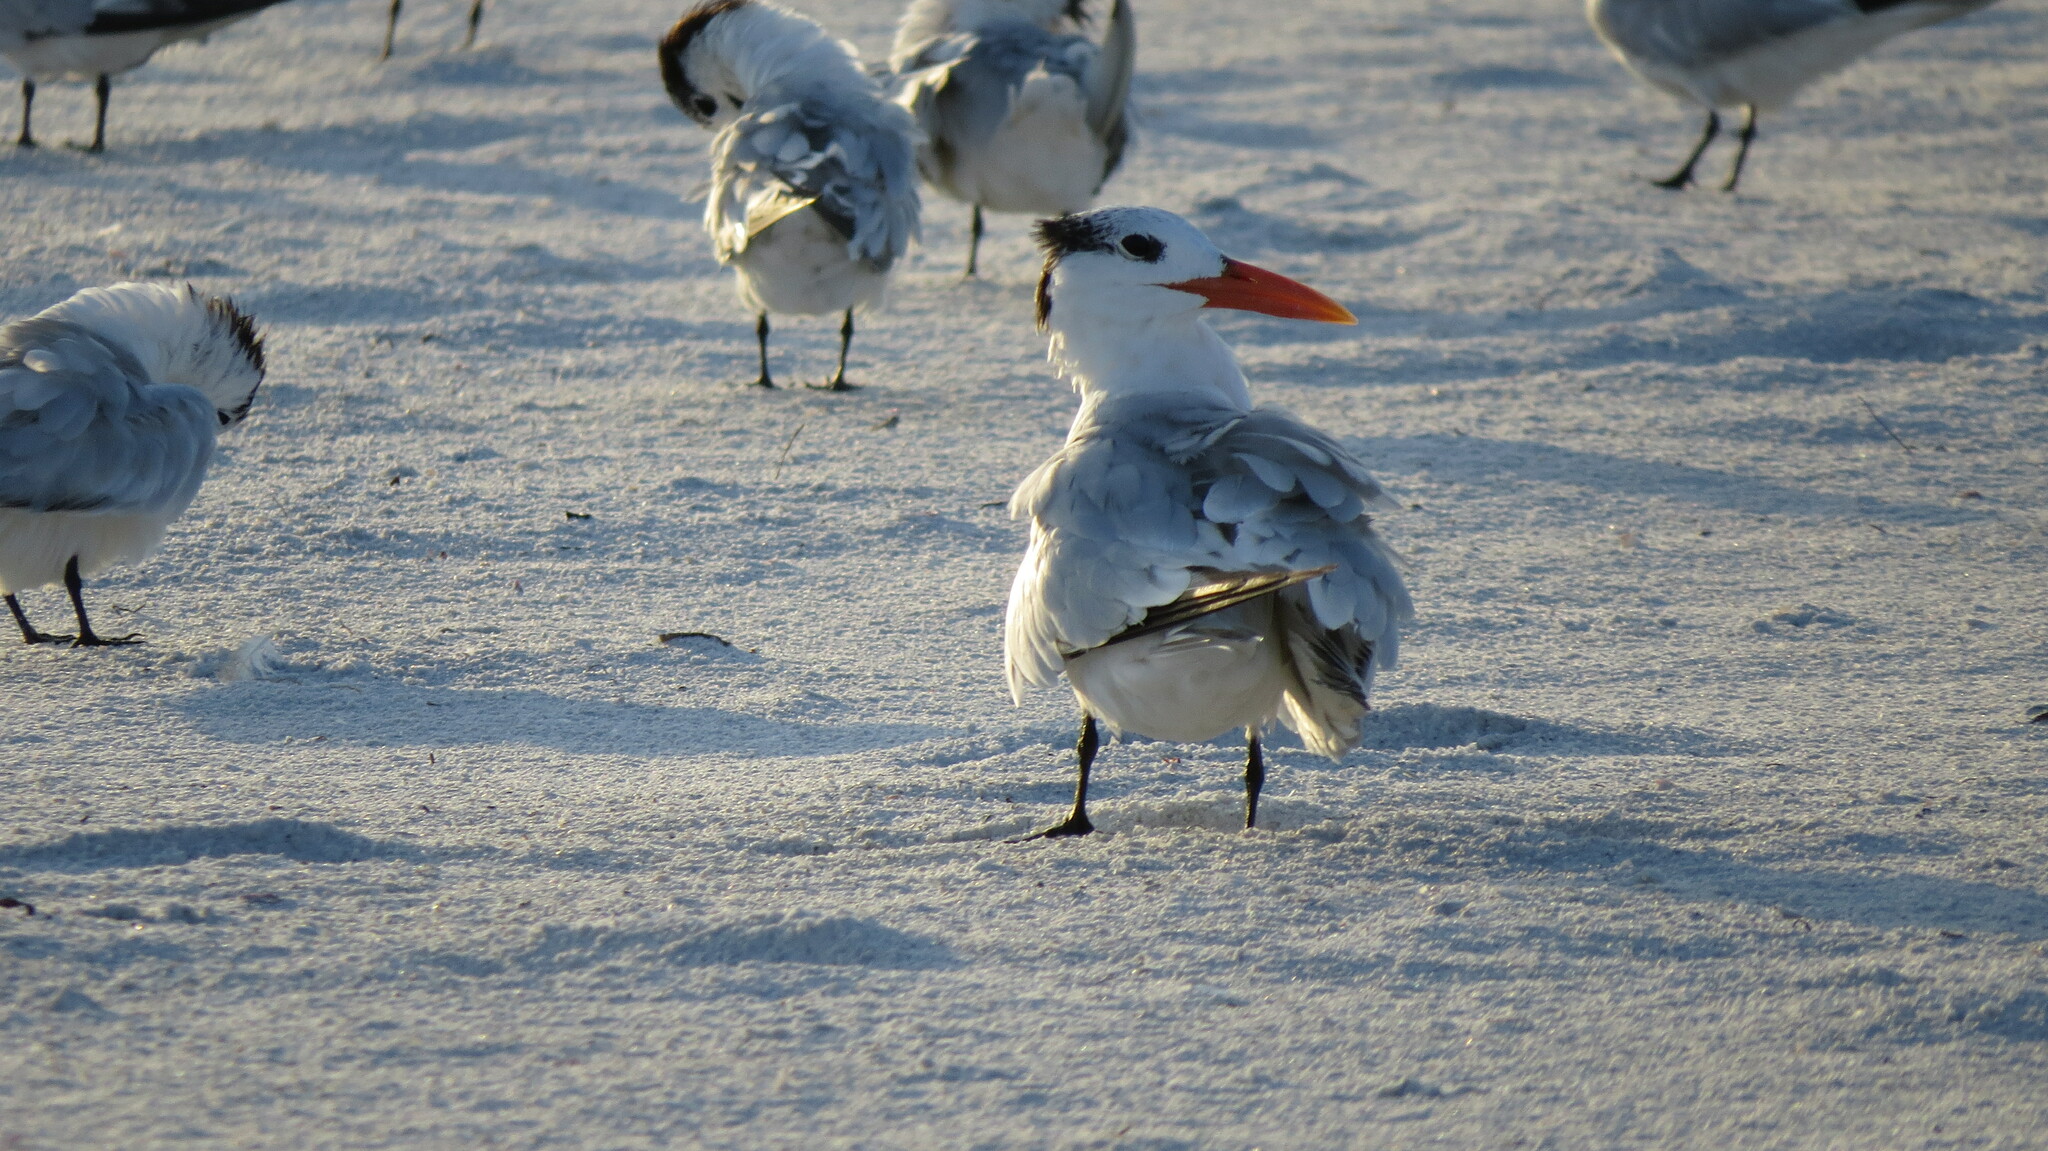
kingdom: Animalia
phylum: Chordata
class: Aves
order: Charadriiformes
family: Laridae
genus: Thalasseus
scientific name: Thalasseus maximus
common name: Royal tern
